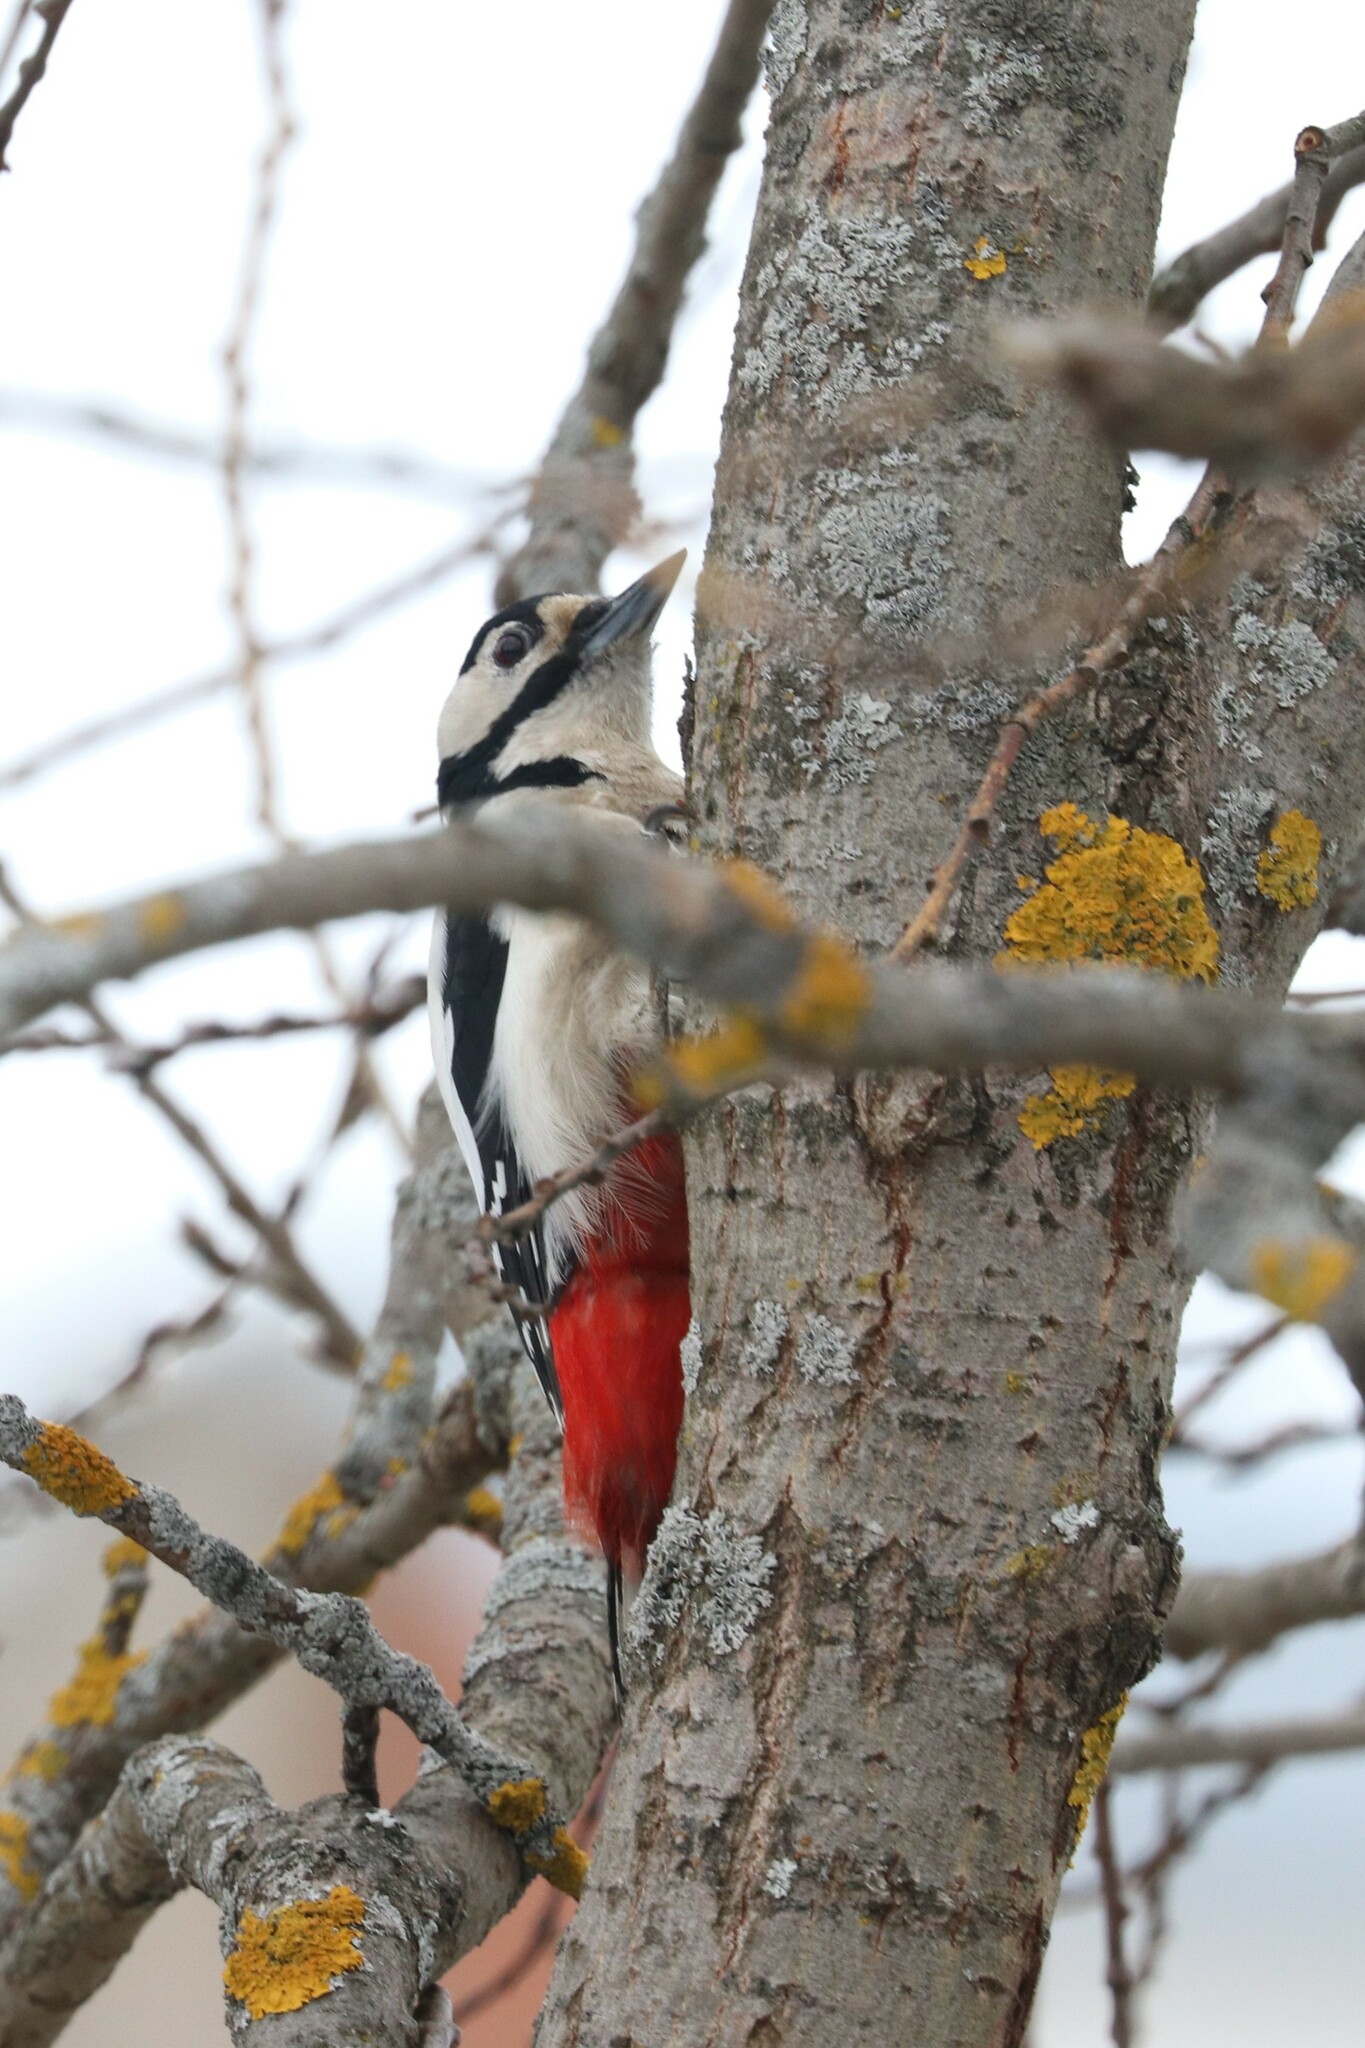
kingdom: Animalia
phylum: Chordata
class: Aves
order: Piciformes
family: Picidae
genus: Dendrocopos
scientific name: Dendrocopos major
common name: Great spotted woodpecker
